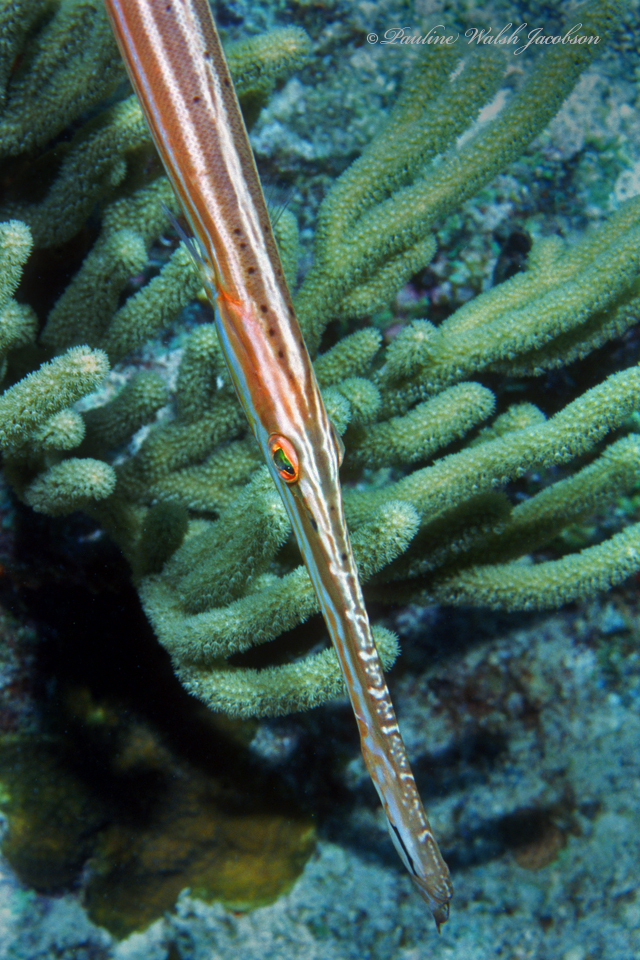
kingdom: Animalia
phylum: Chordata
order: Syngnathiformes
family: Aulostomidae
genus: Aulostomus
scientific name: Aulostomus maculatus
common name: West atlantic trumpetfish
